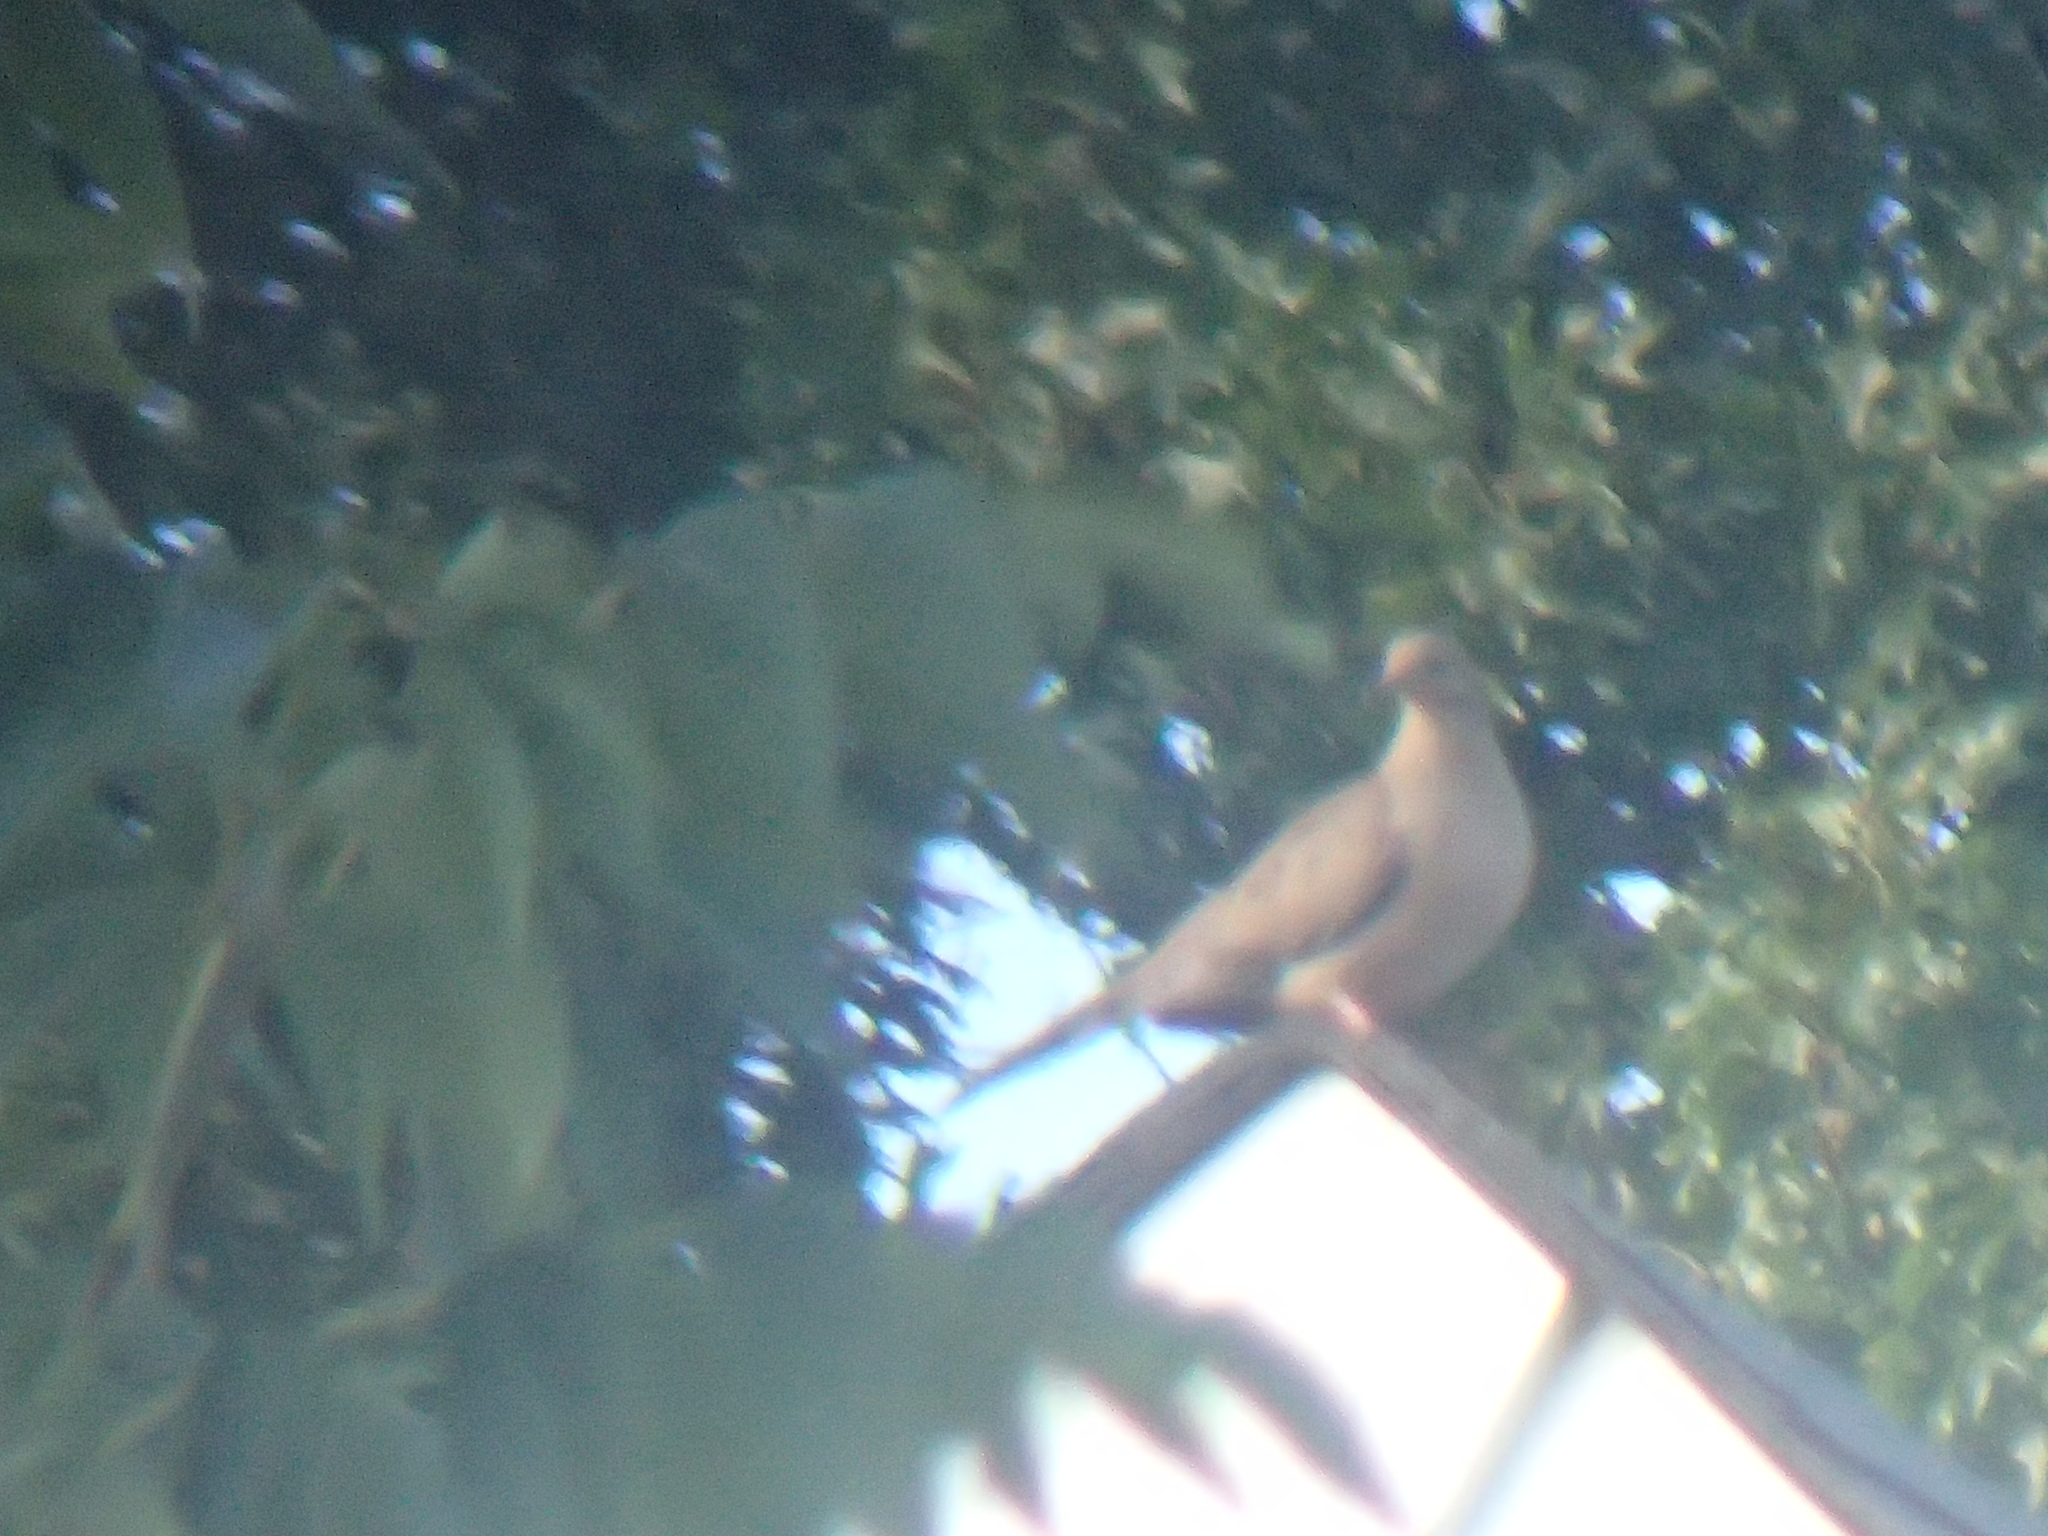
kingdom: Animalia
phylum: Chordata
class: Aves
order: Columbiformes
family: Columbidae
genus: Zenaida
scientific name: Zenaida macroura
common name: Mourning dove
